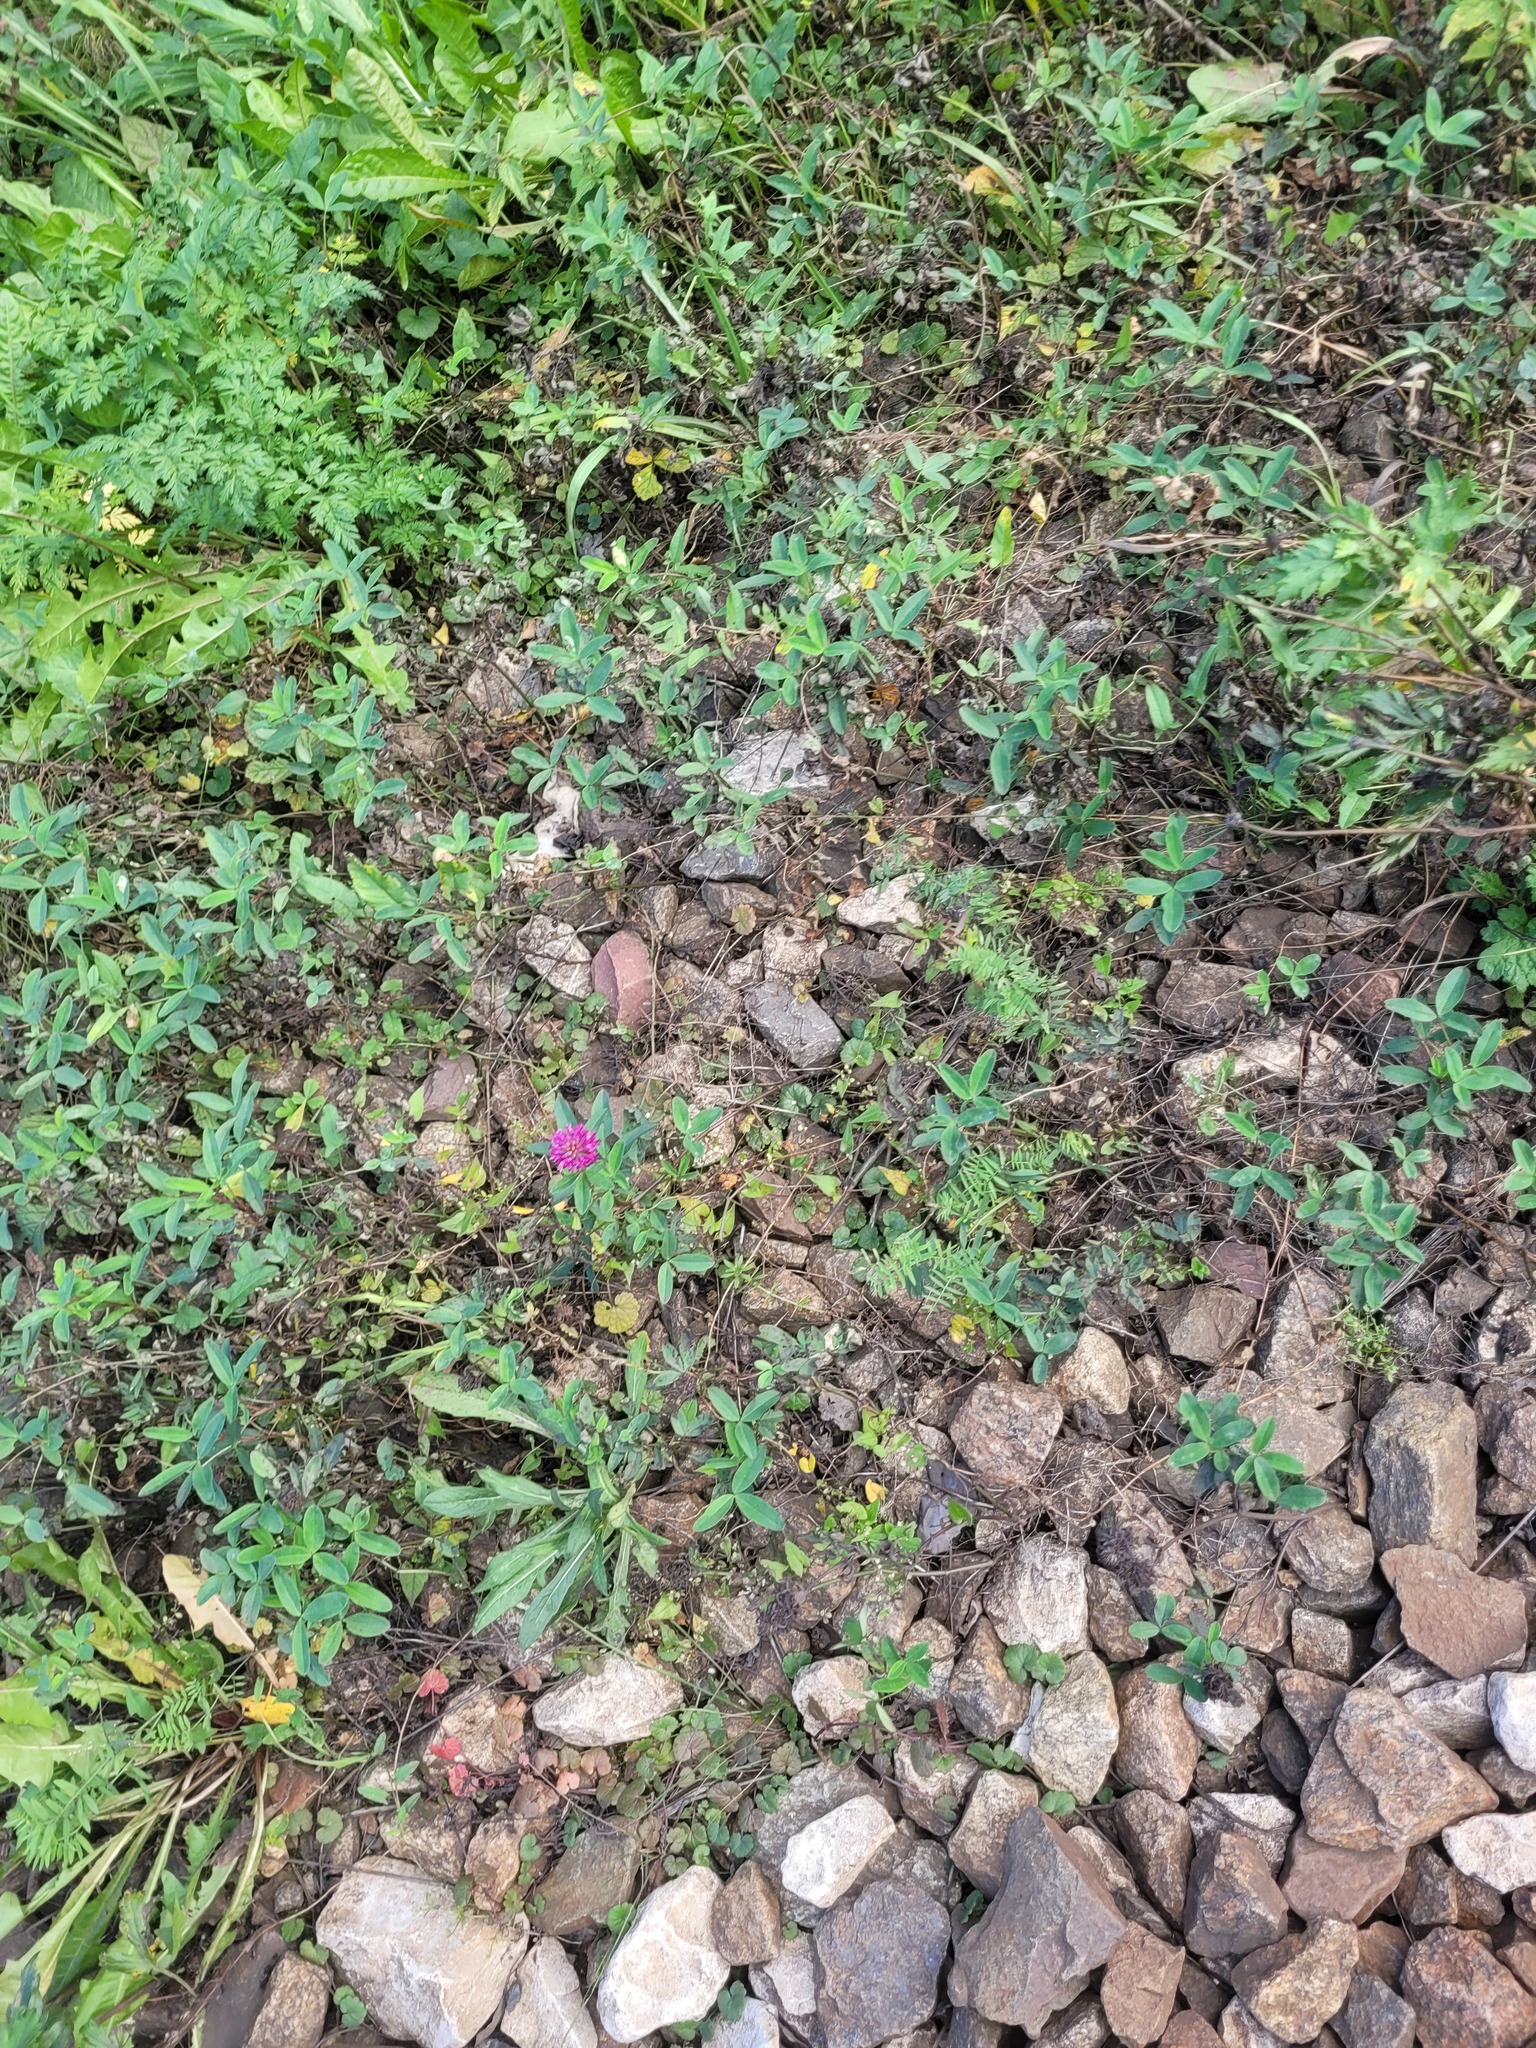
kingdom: Plantae
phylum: Tracheophyta
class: Magnoliopsida
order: Fabales
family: Fabaceae
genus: Trifolium
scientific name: Trifolium medium
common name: Zigzag clover
